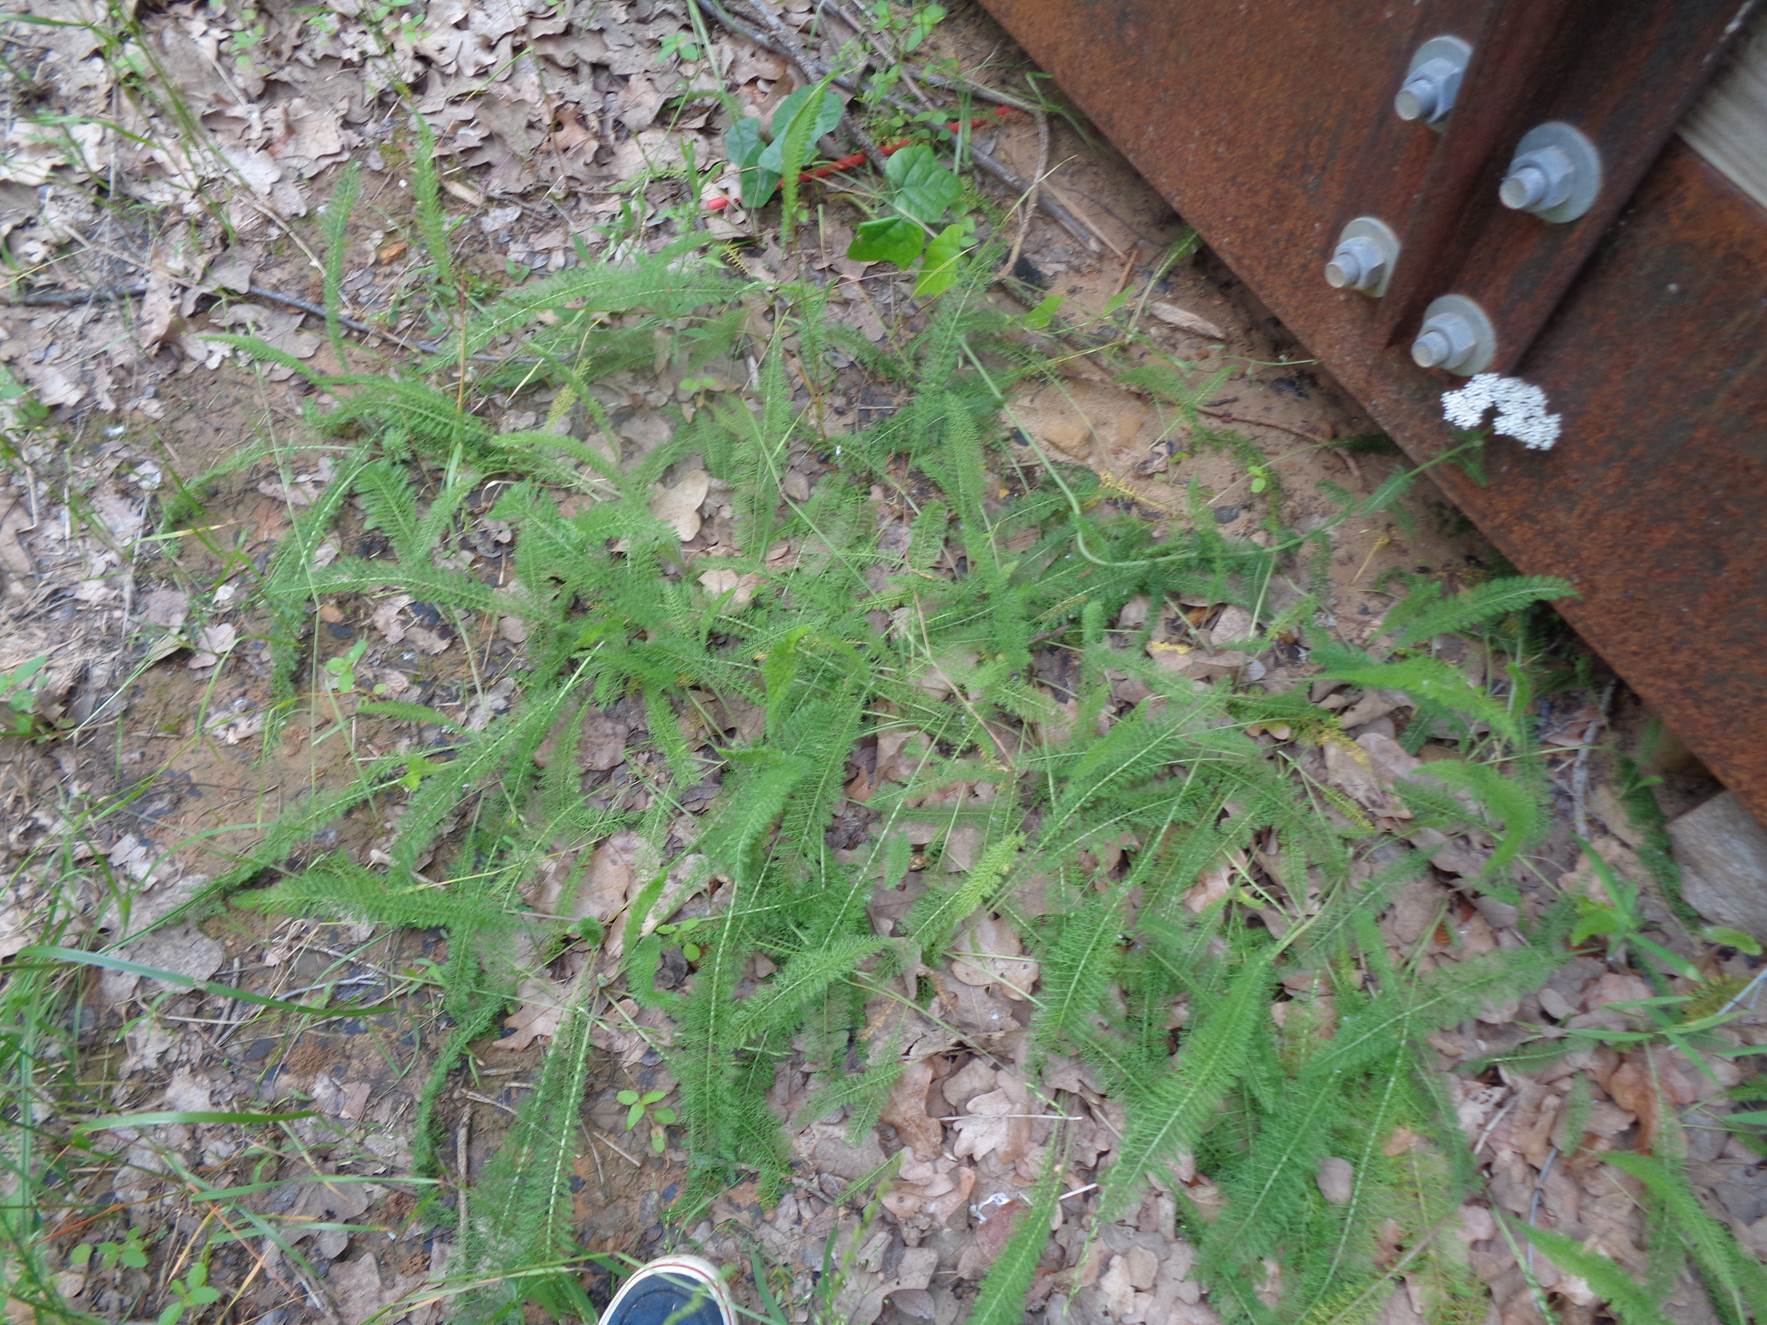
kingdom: Plantae
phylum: Tracheophyta
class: Magnoliopsida
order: Asterales
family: Asteraceae
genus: Achillea
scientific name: Achillea millefolium
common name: Yarrow
